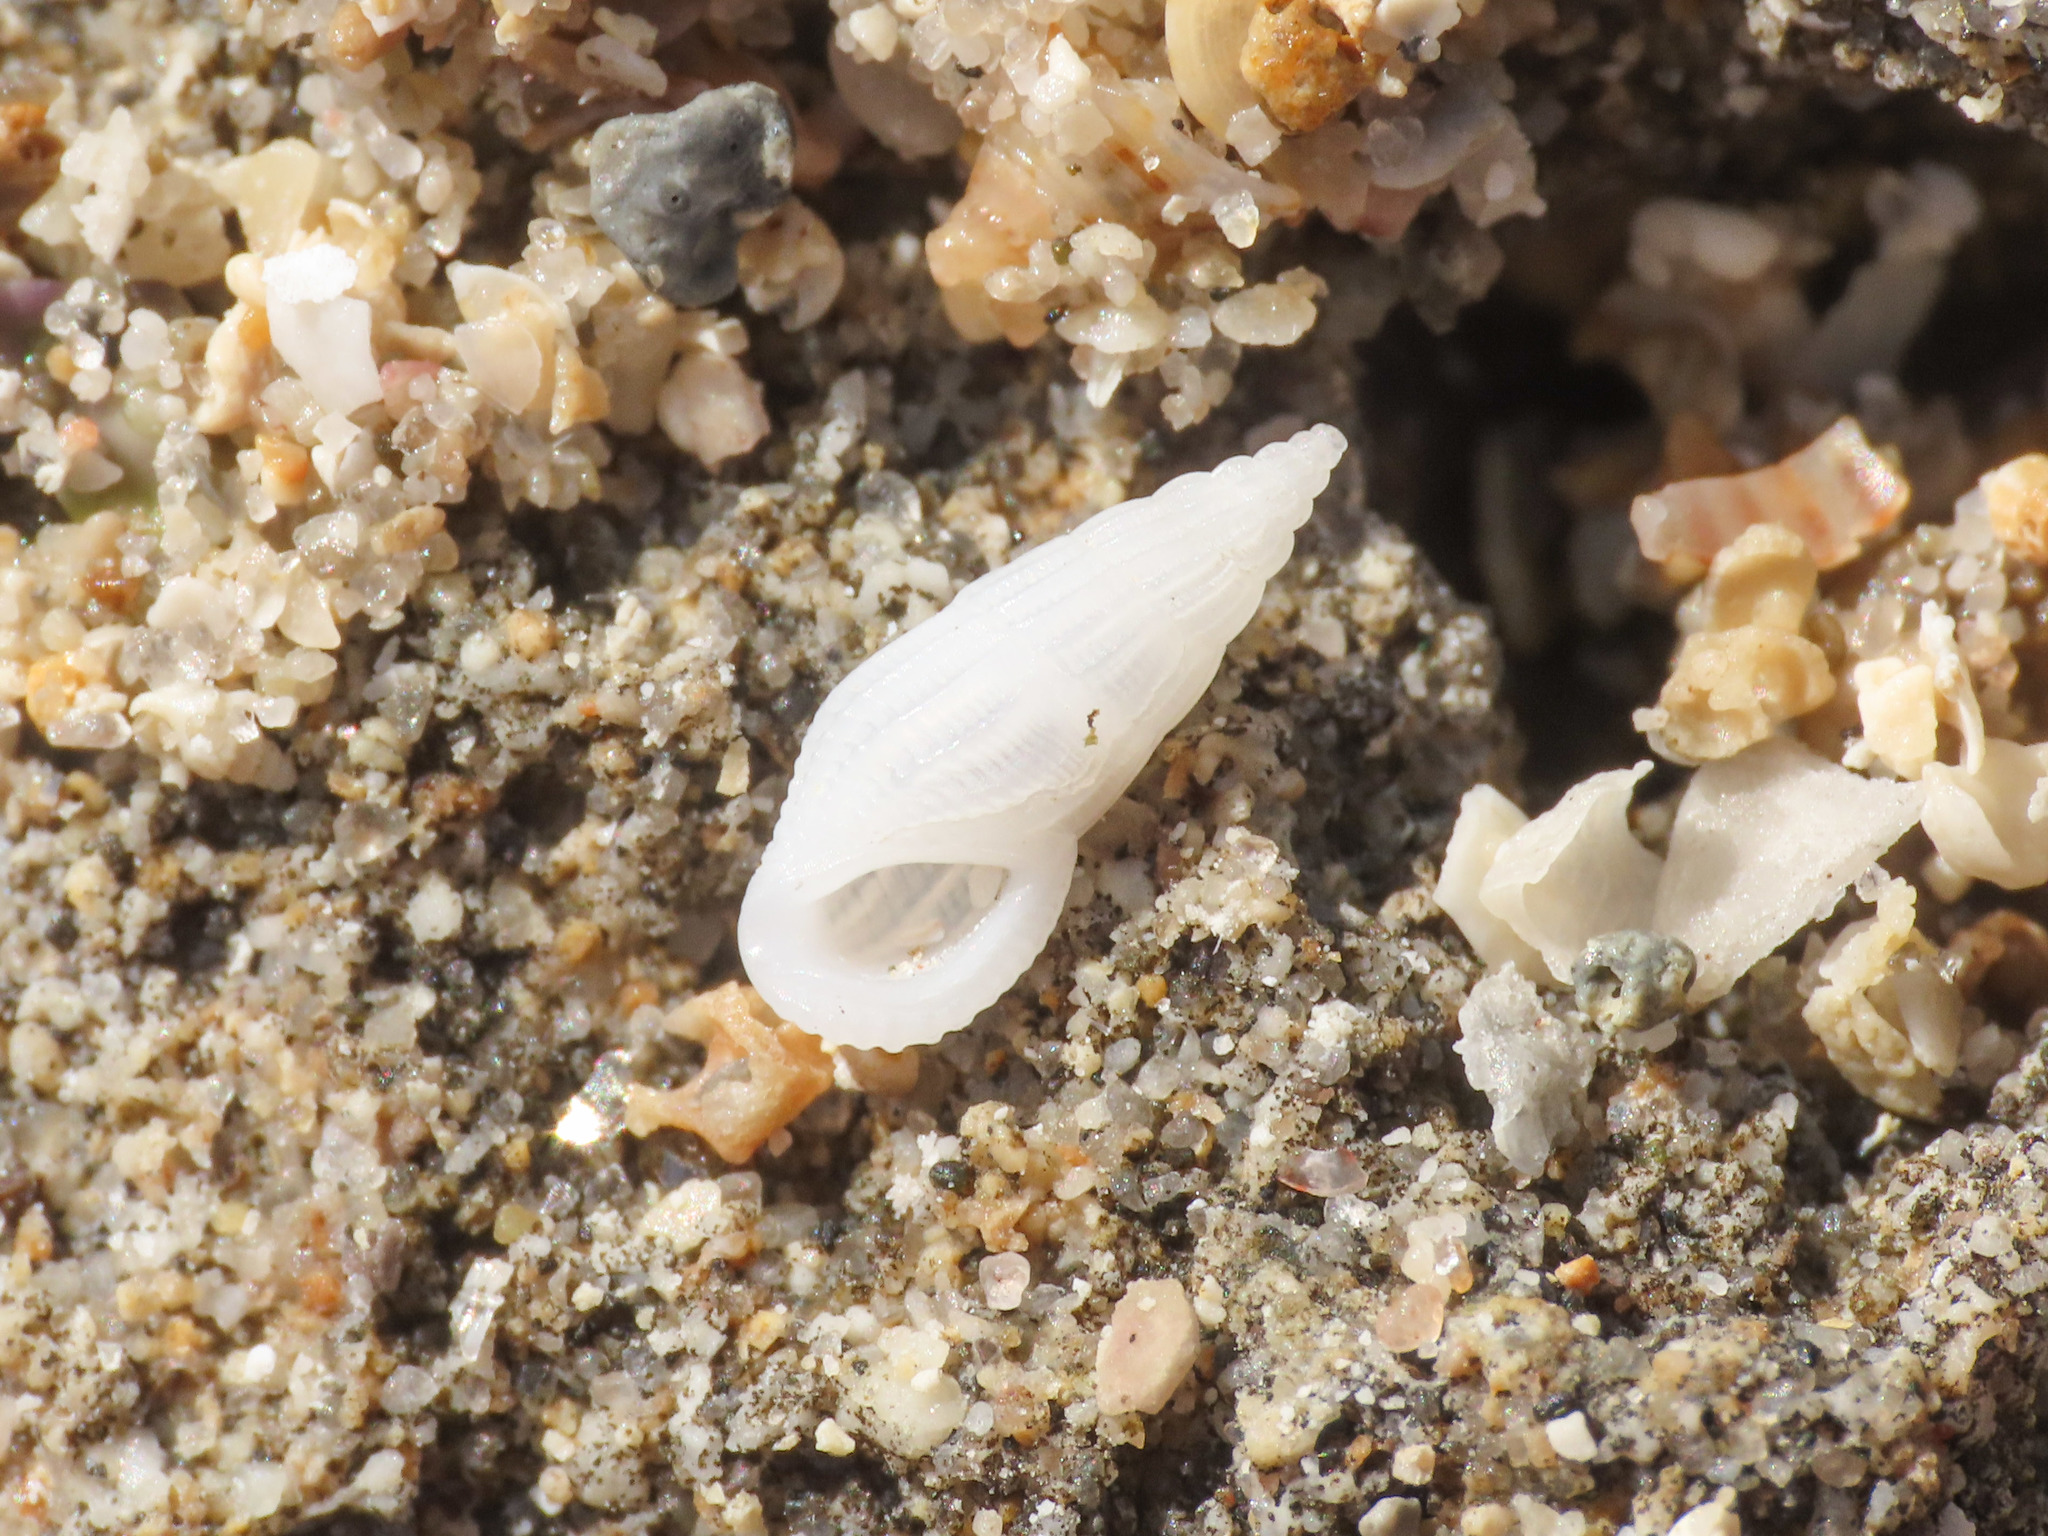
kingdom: Animalia
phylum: Mollusca
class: Gastropoda
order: Littorinimorpha
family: Rissoinidae
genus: Rissoina
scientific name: Rissoina bruguieri
